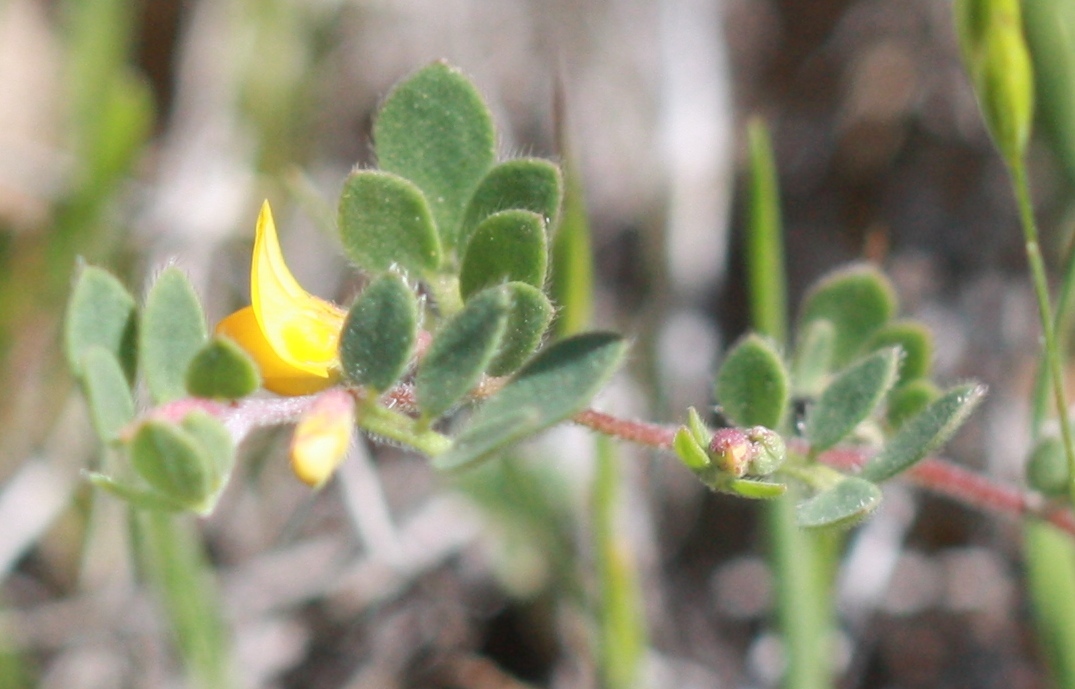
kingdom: Plantae
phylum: Tracheophyta
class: Magnoliopsida
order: Fabales
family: Fabaceae
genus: Acmispon
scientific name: Acmispon wrangelianus
